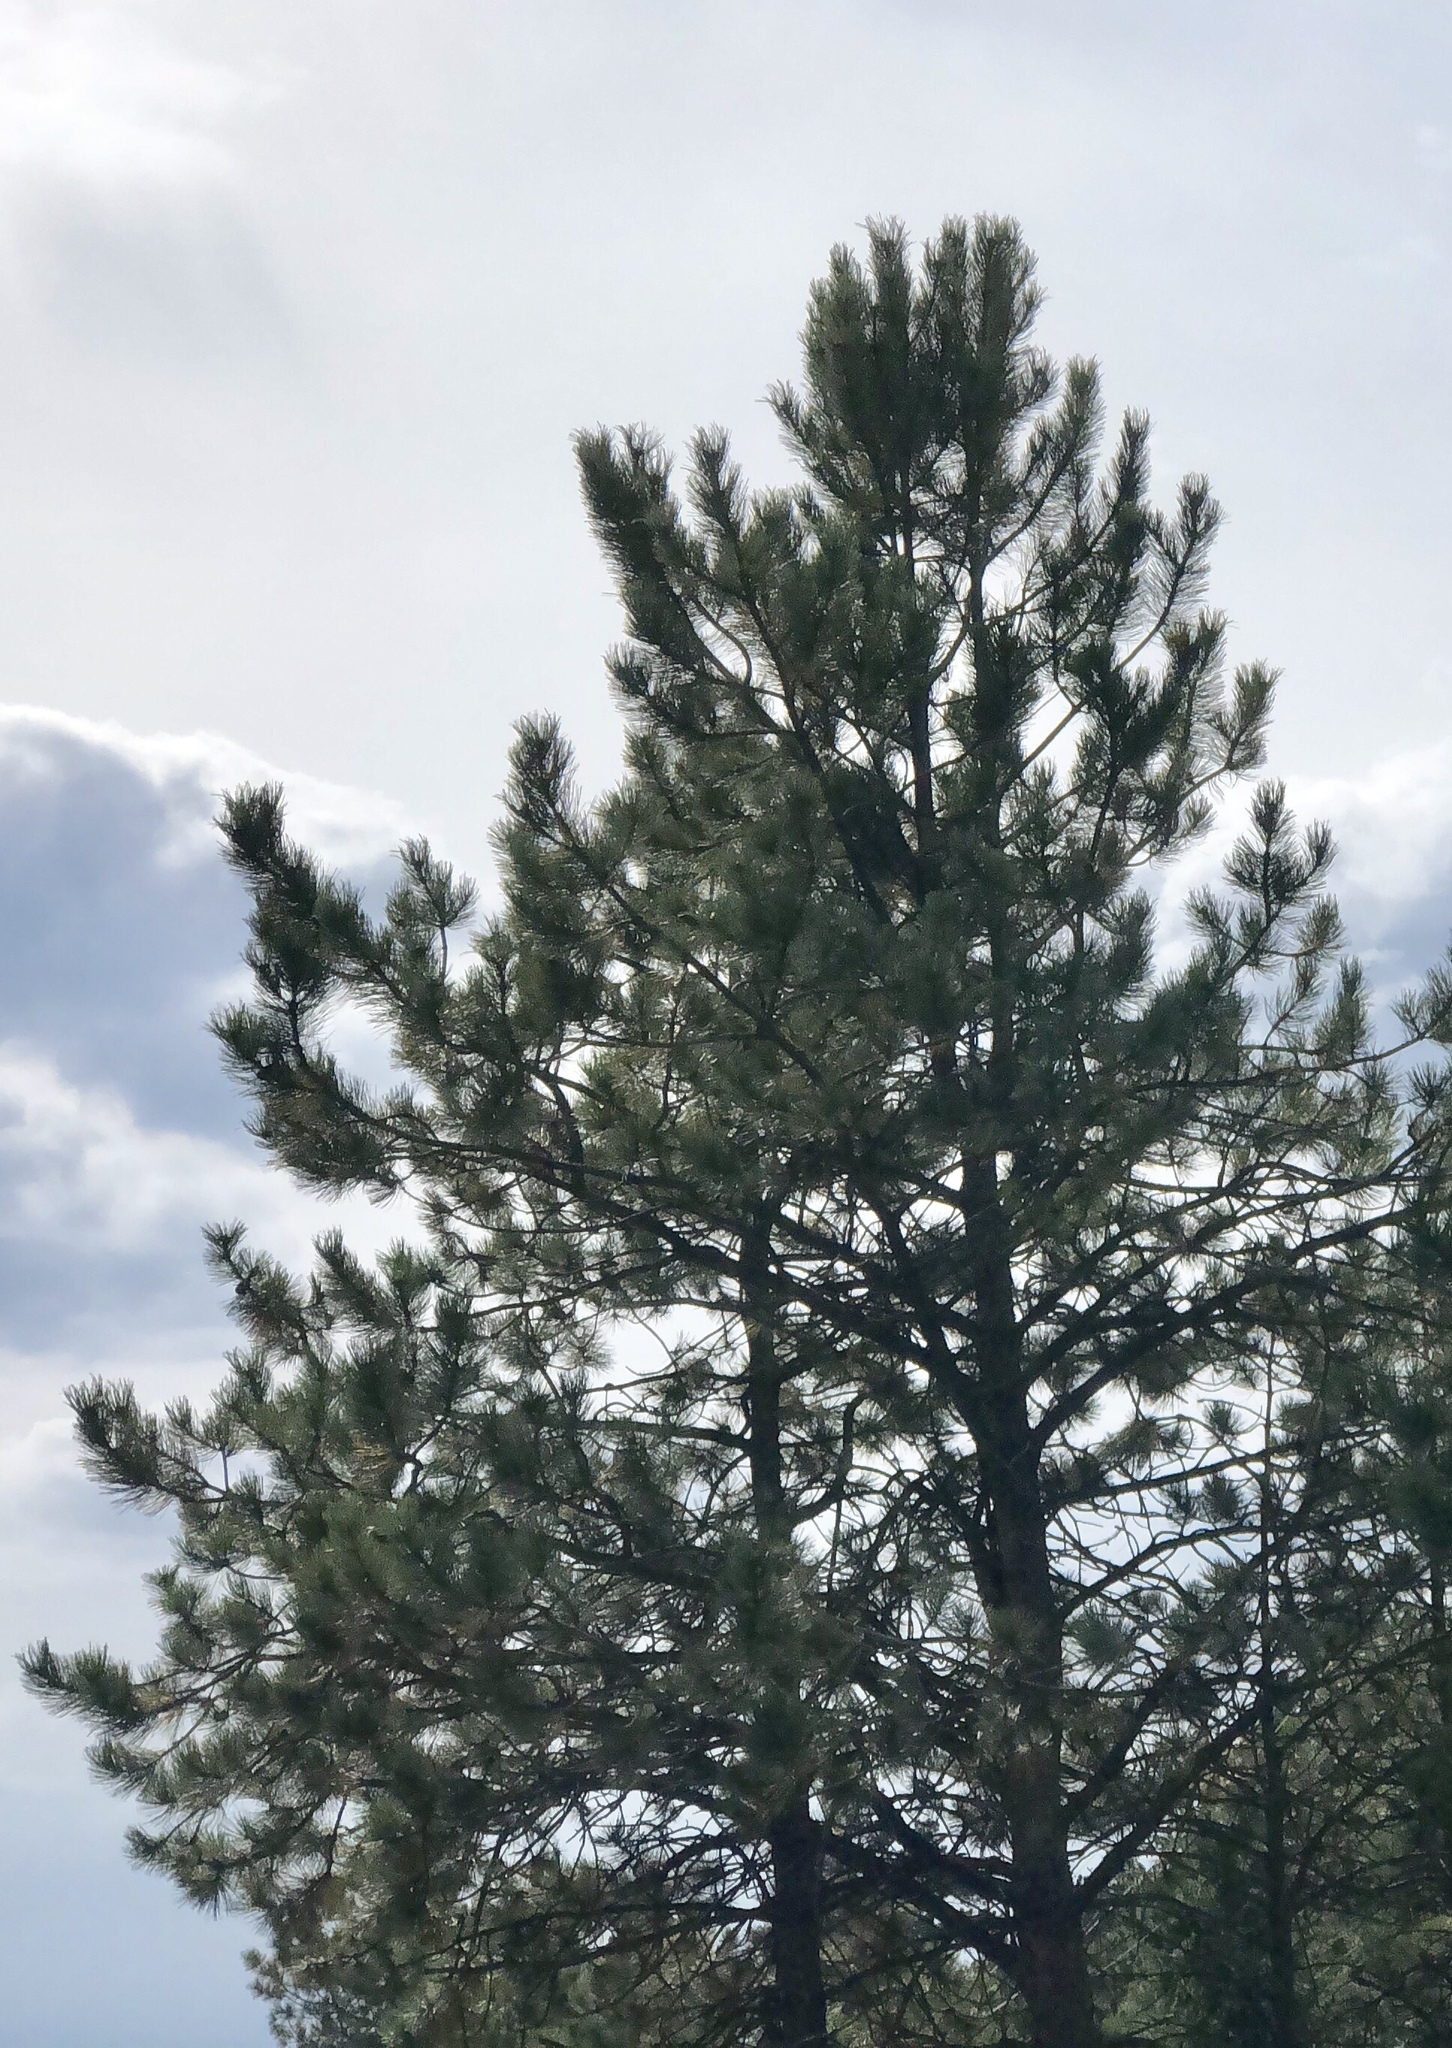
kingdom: Plantae
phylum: Tracheophyta
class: Pinopsida
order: Pinales
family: Pinaceae
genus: Pinus
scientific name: Pinus ponderosa
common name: Western yellow-pine
